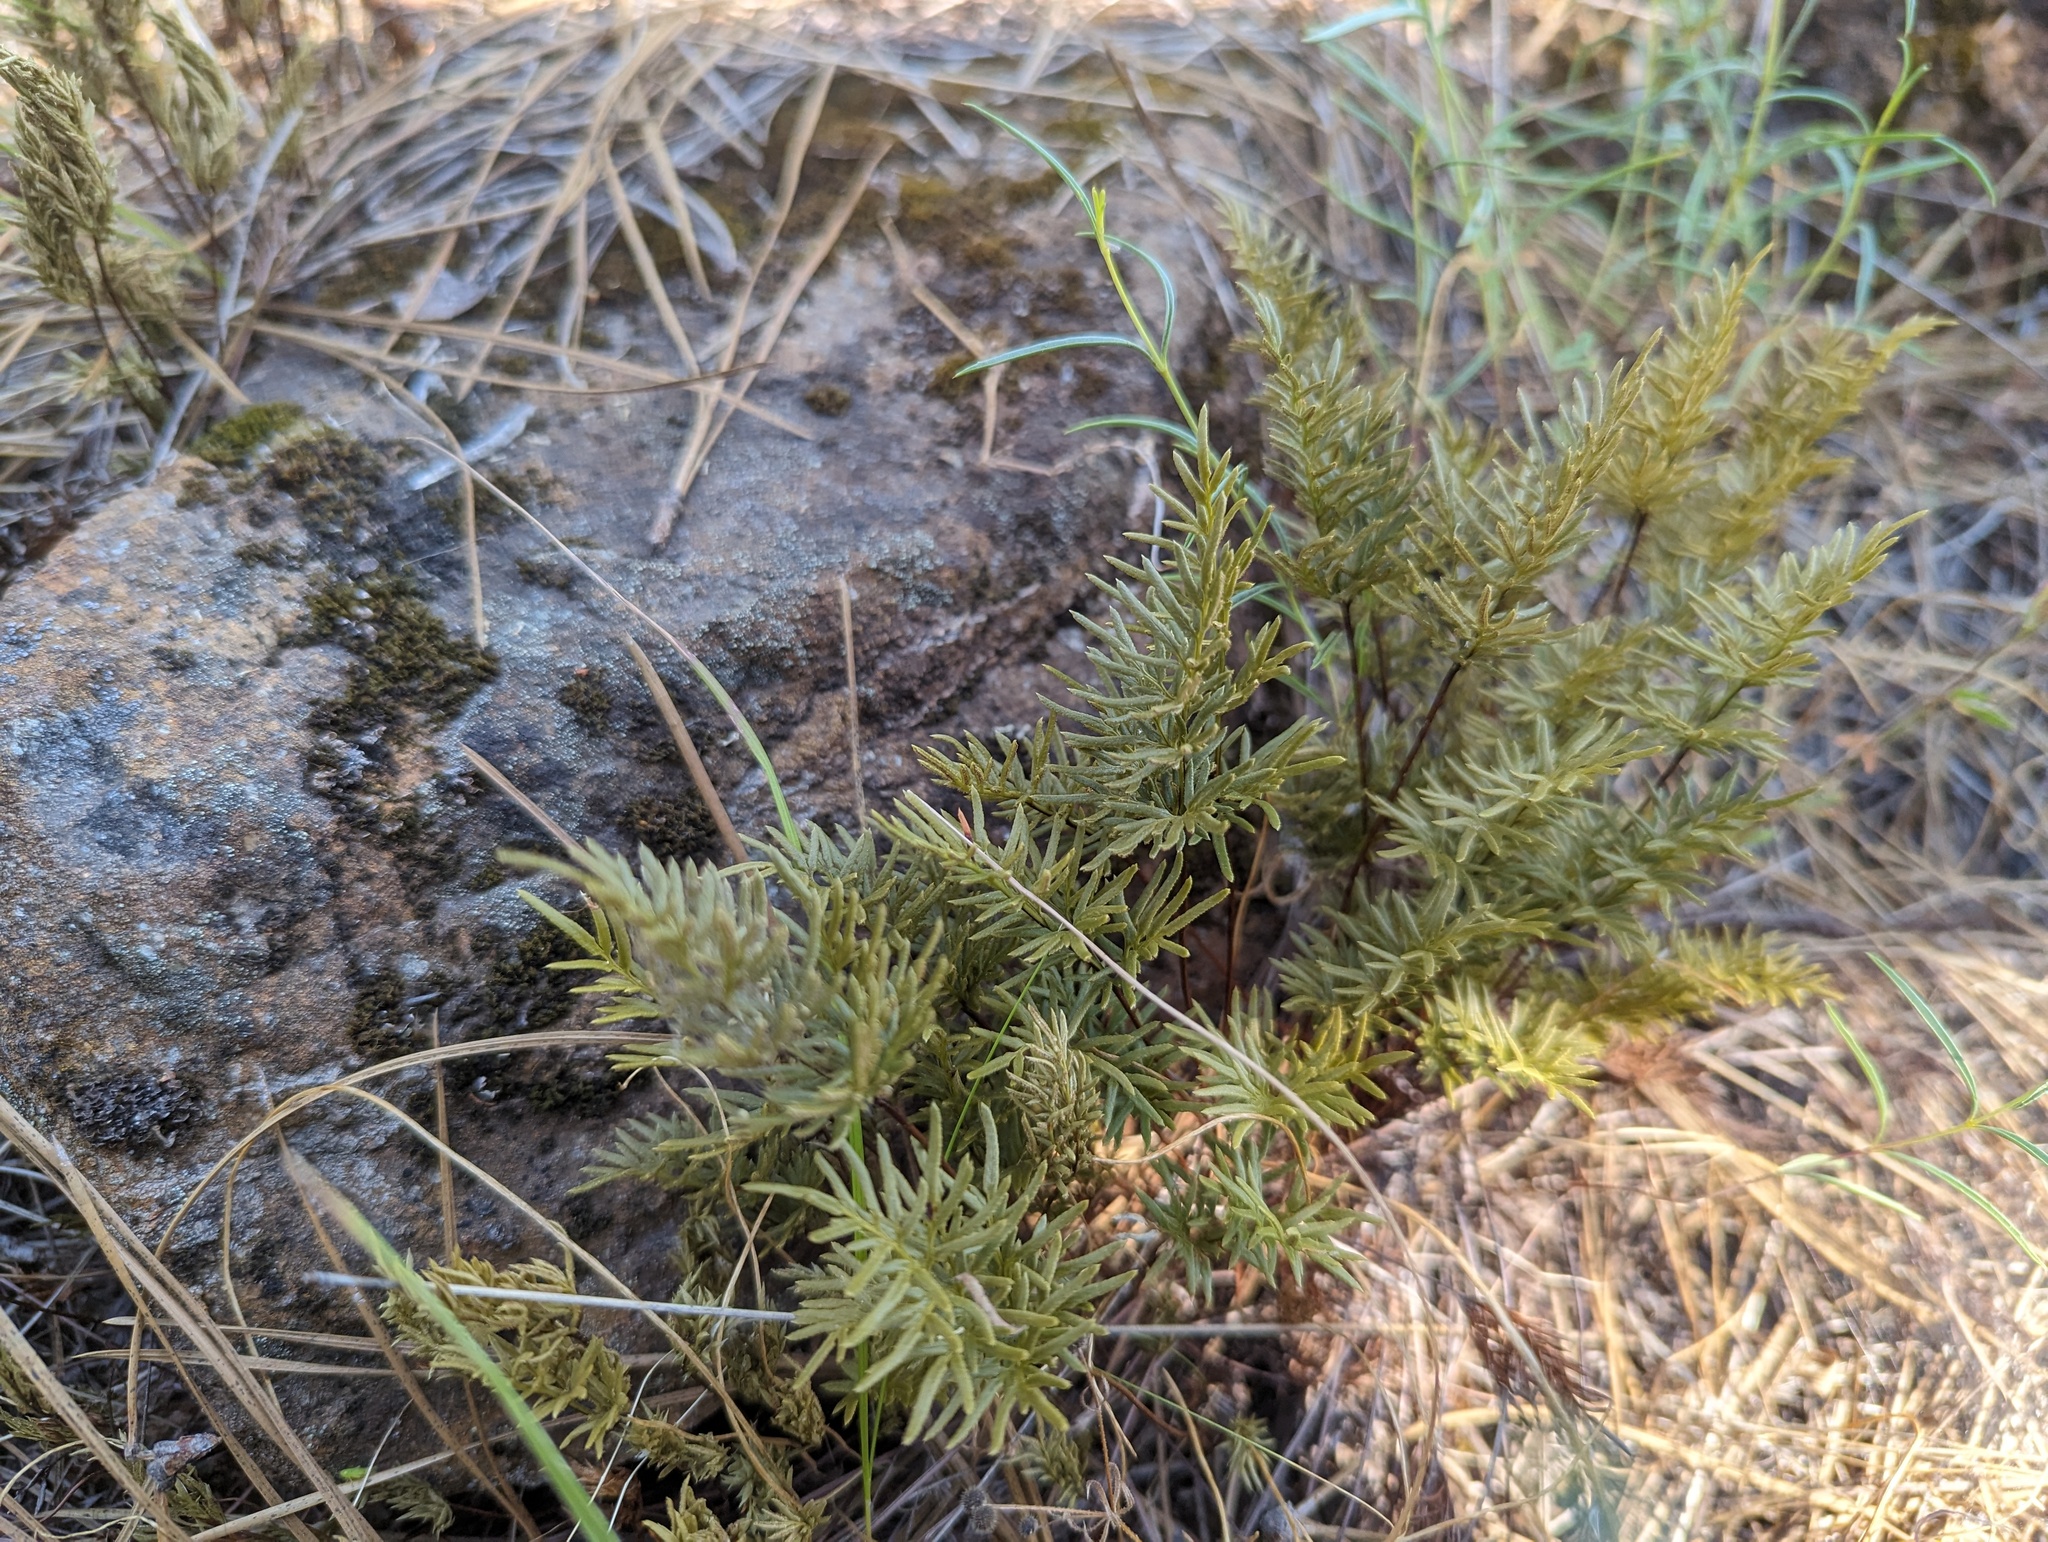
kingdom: Plantae
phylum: Tracheophyta
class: Polypodiopsida
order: Polypodiales
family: Pteridaceae
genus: Aspidotis
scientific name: Aspidotis densa
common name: Indian's dream
